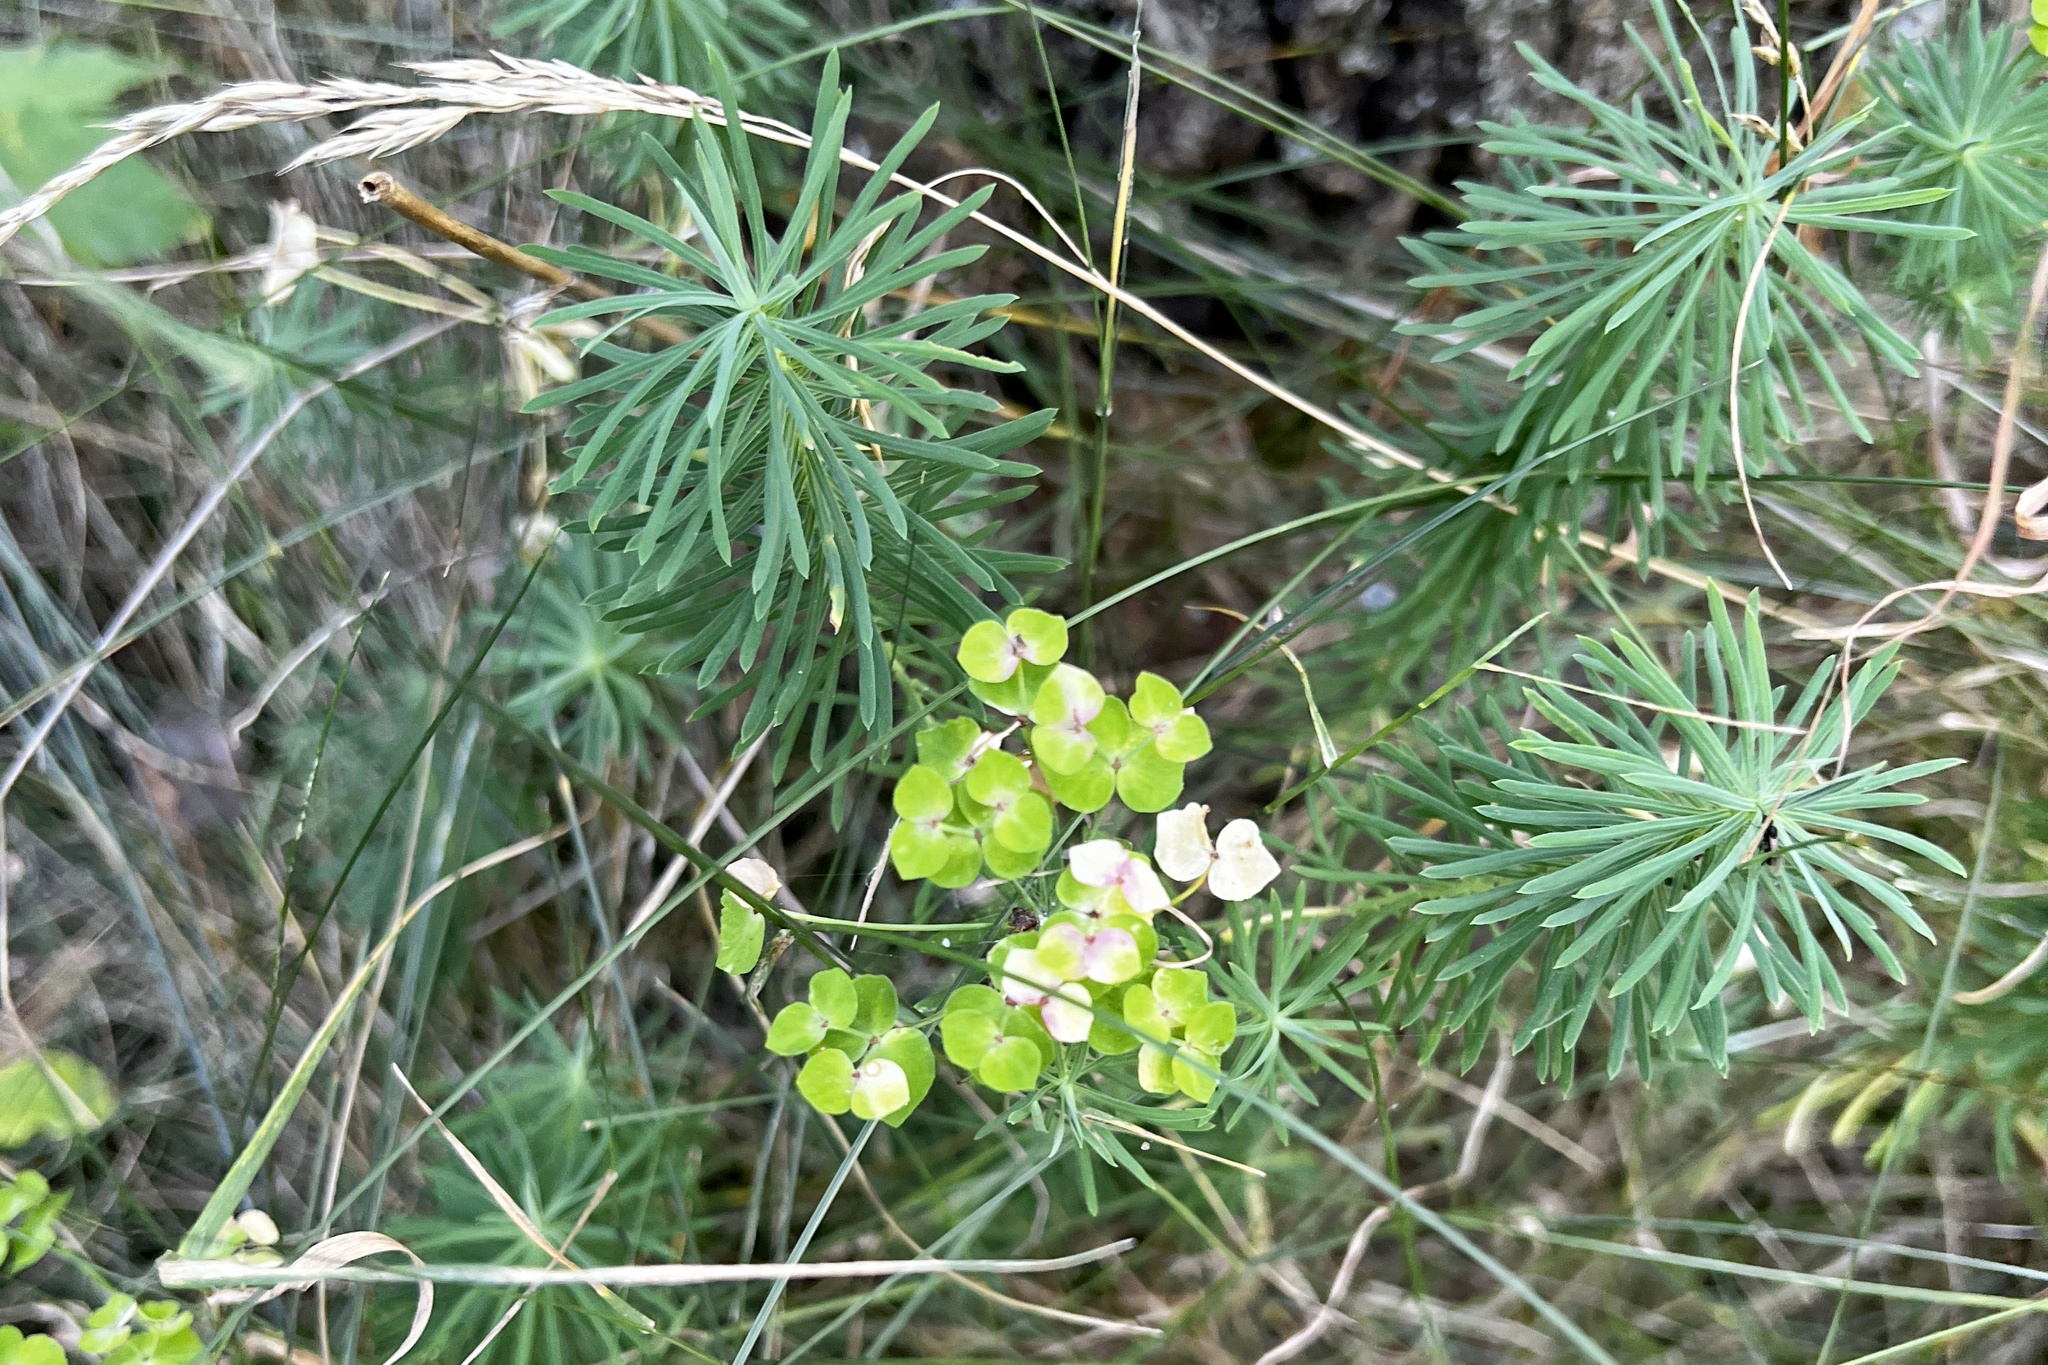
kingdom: Plantae
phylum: Tracheophyta
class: Magnoliopsida
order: Malpighiales
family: Euphorbiaceae
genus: Euphorbia
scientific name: Euphorbia cyparissias
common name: Cypress spurge
